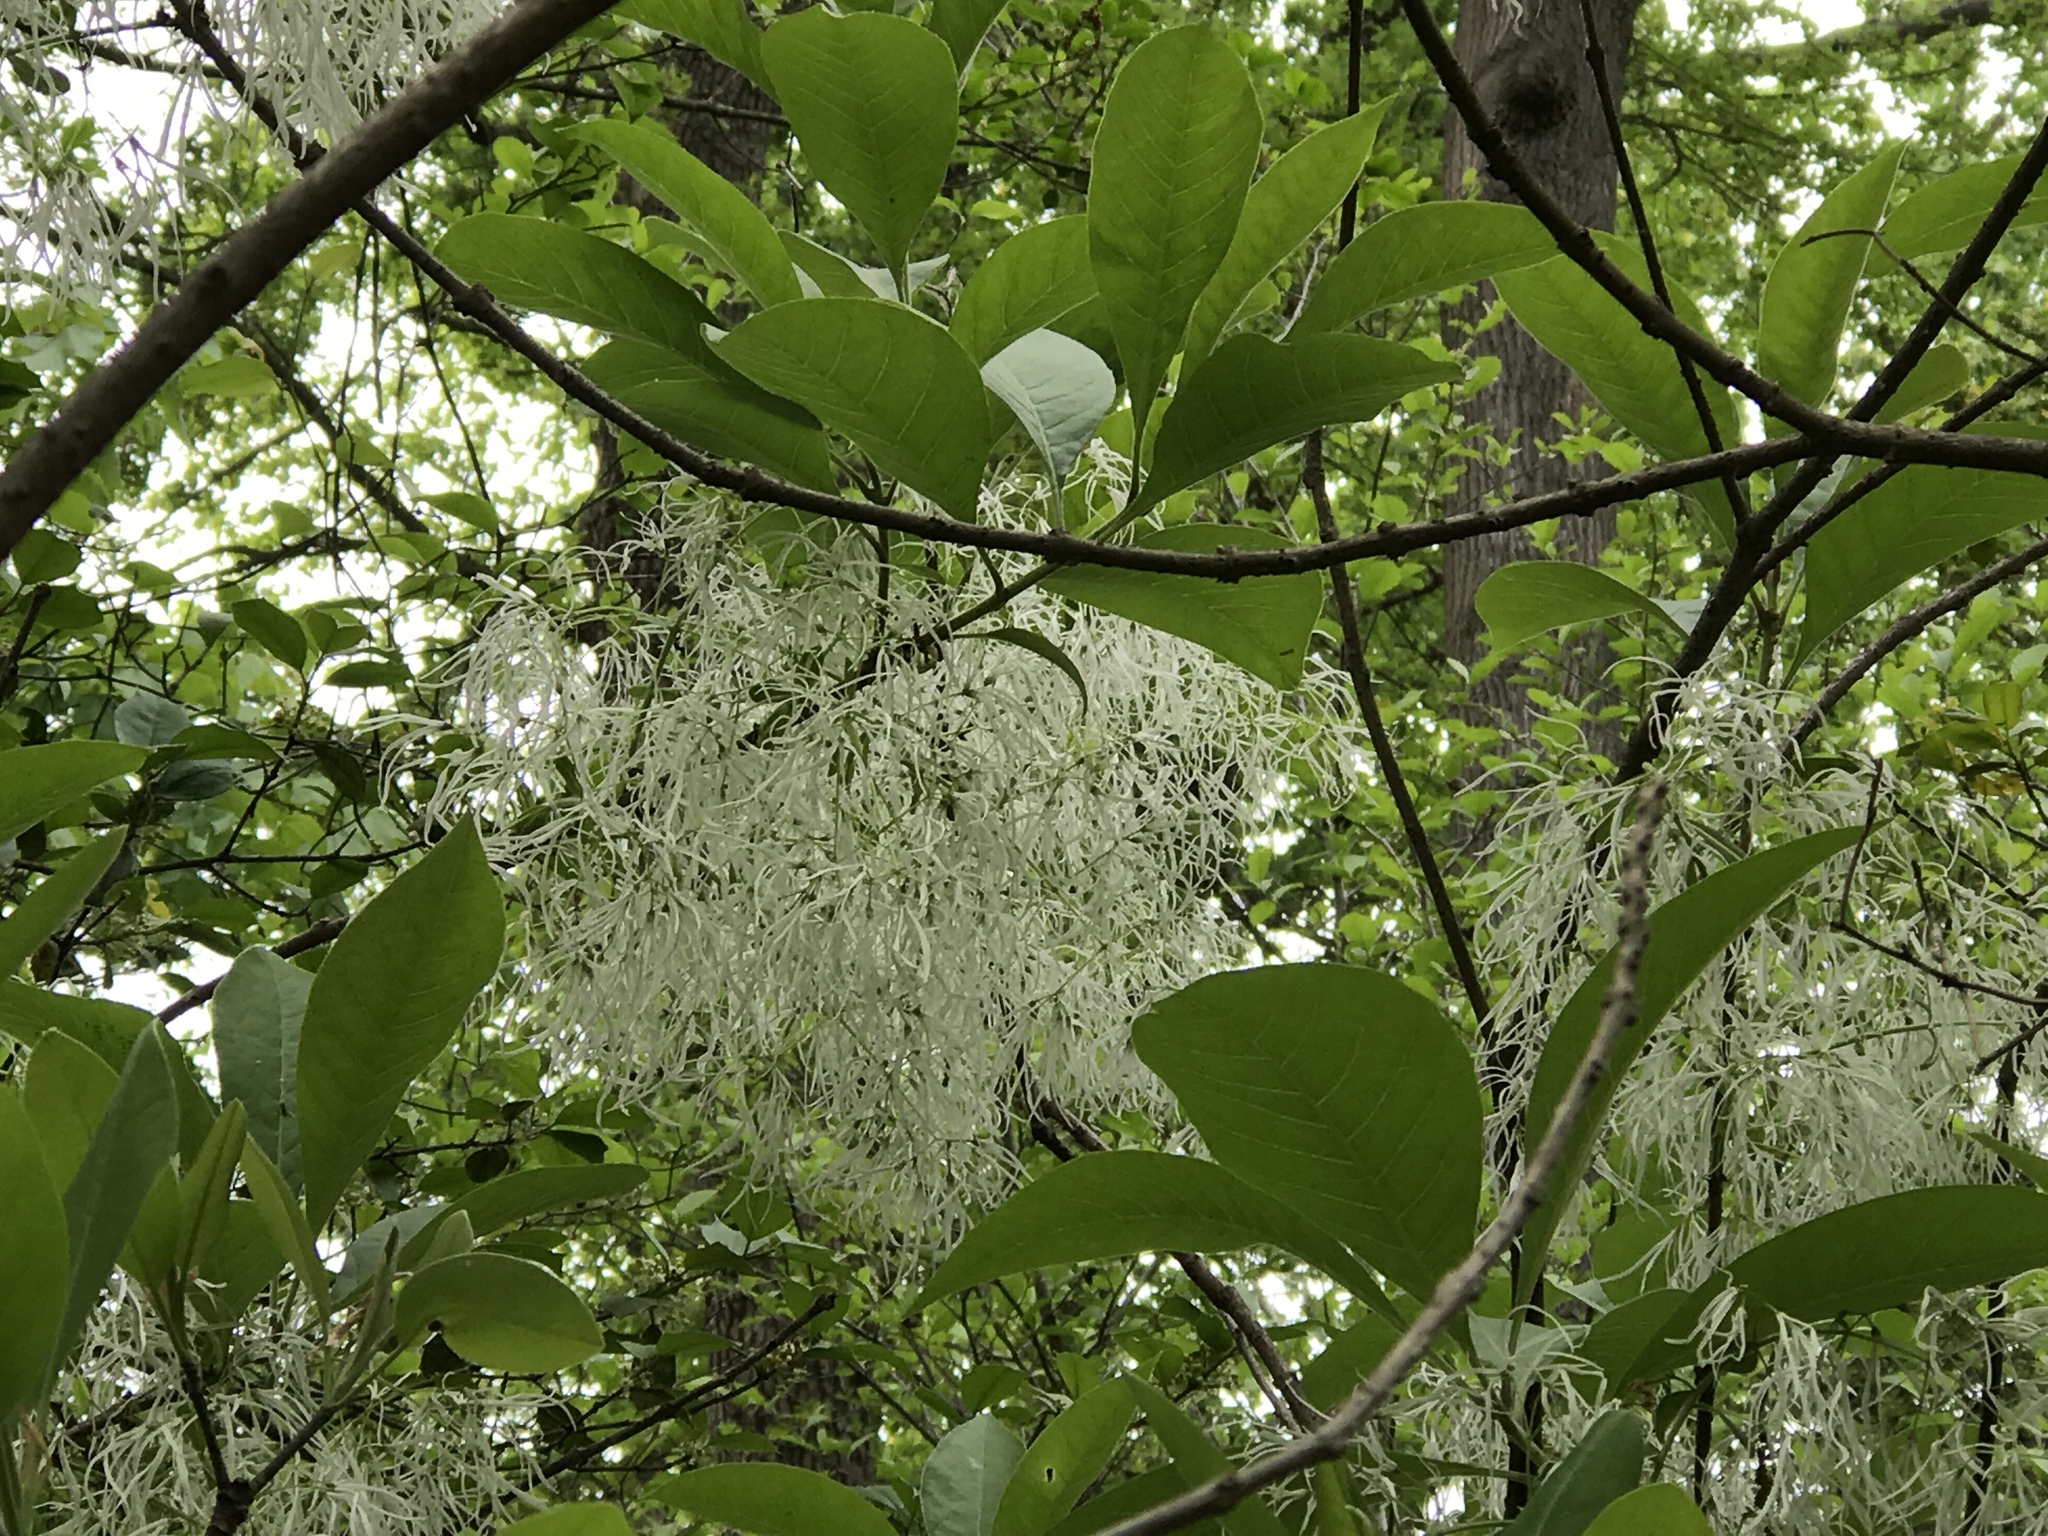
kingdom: Plantae
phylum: Tracheophyta
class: Magnoliopsida
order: Lamiales
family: Oleaceae
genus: Chionanthus
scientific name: Chionanthus virginicus
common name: American fringetree
